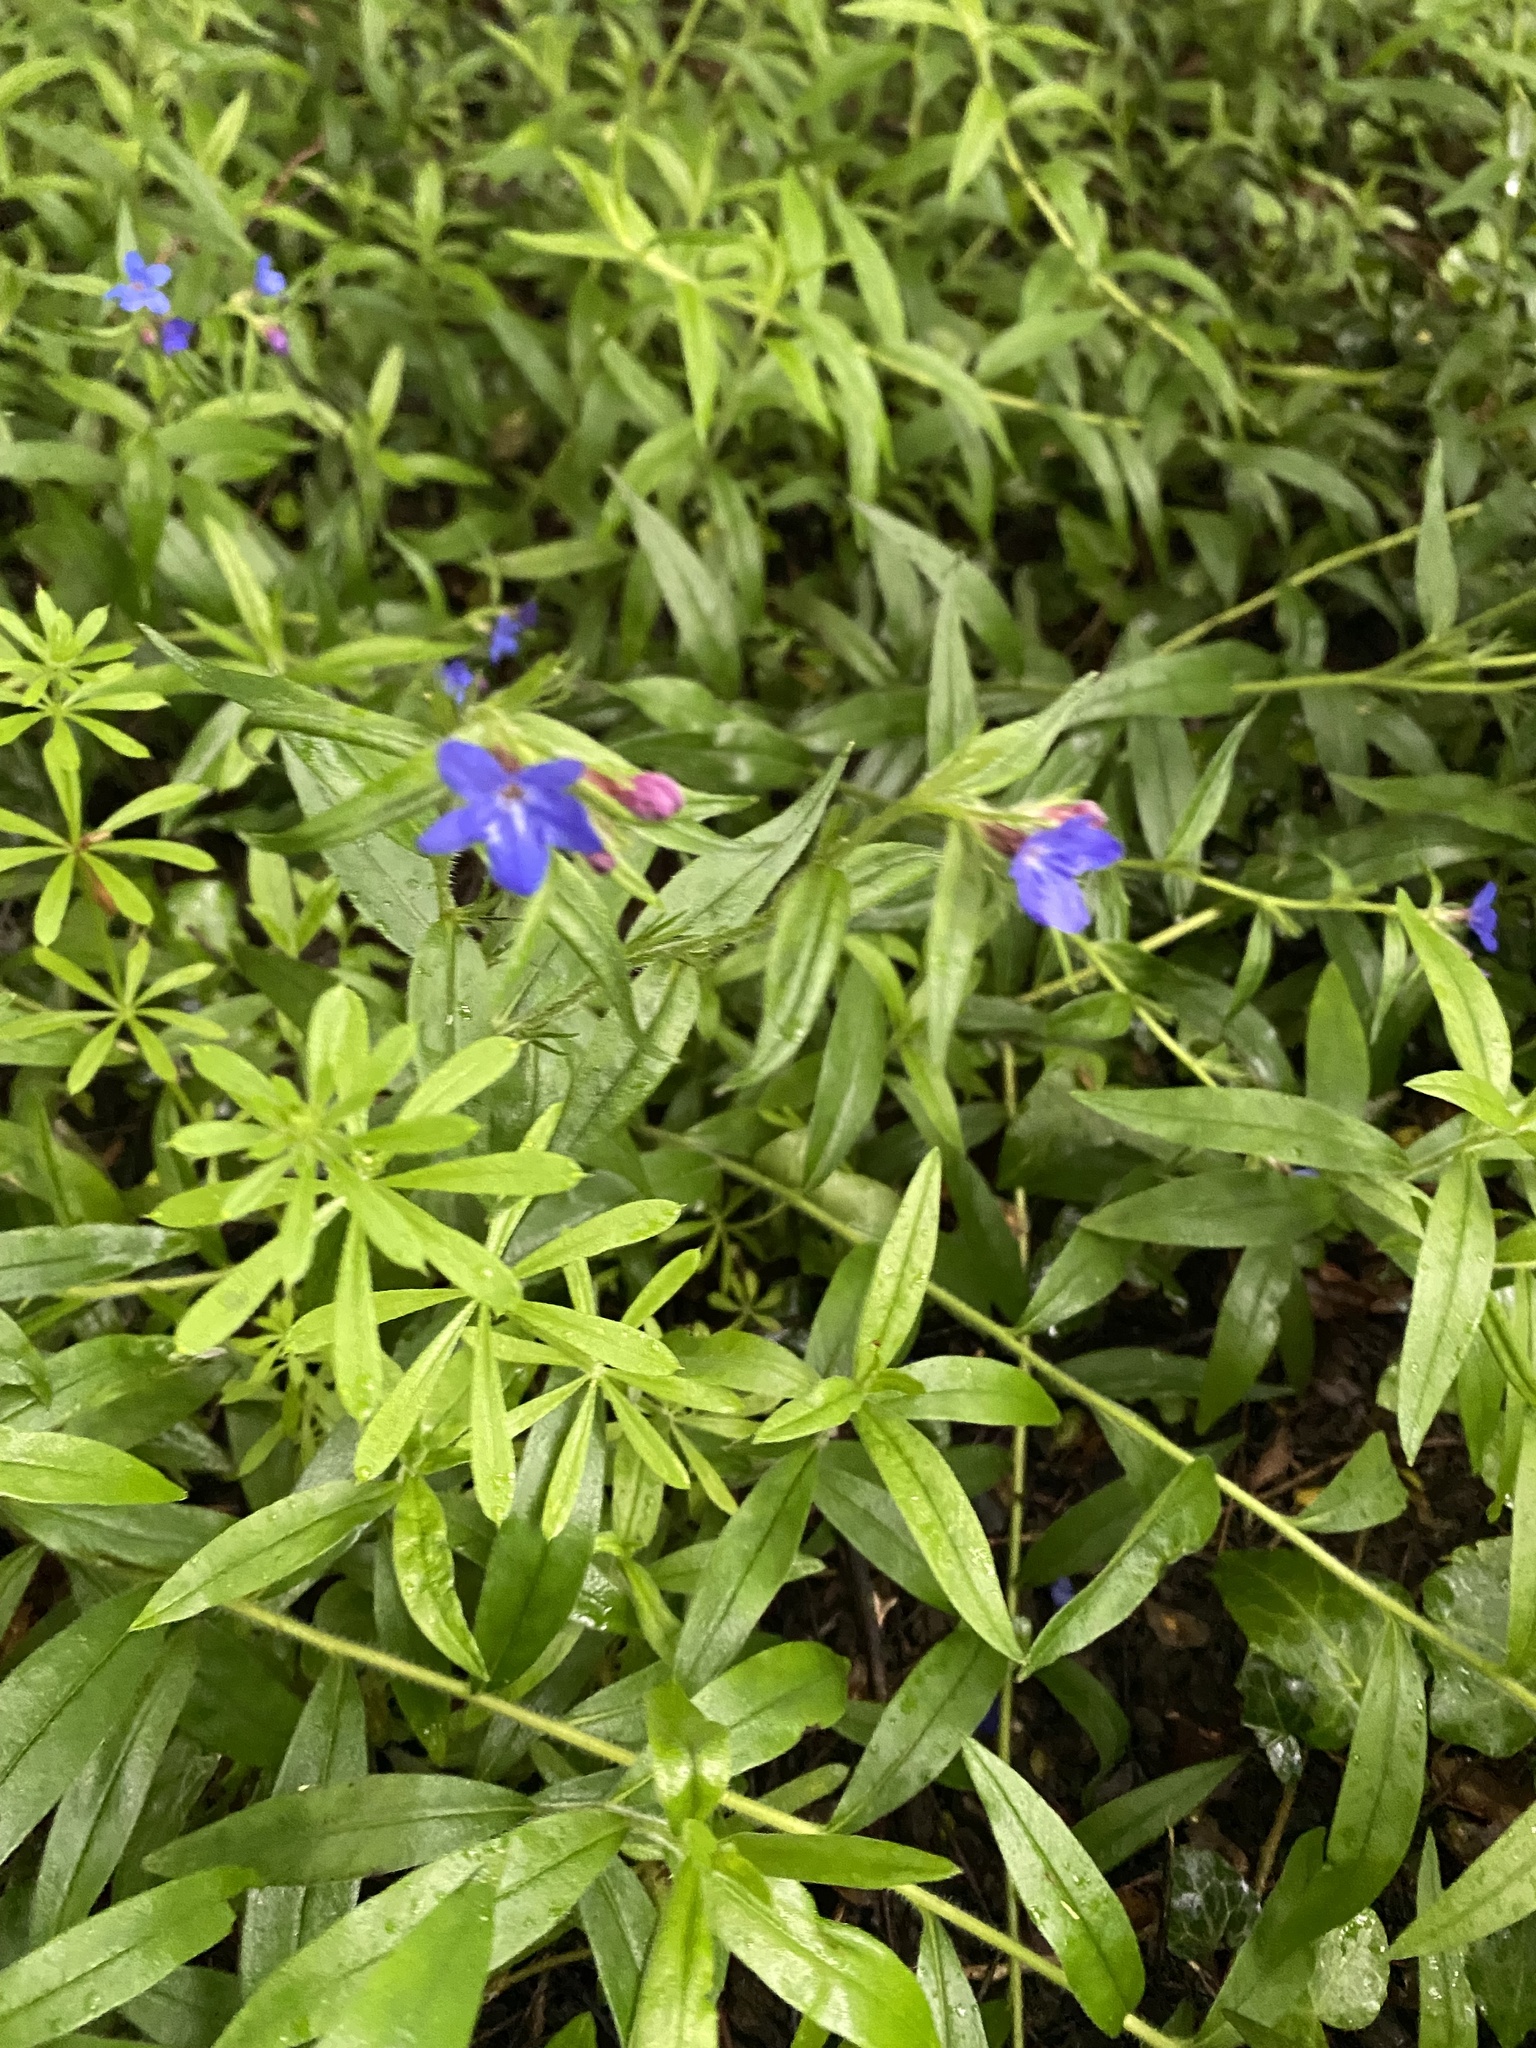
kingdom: Plantae
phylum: Tracheophyta
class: Magnoliopsida
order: Boraginales
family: Boraginaceae
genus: Aegonychon
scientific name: Aegonychon purpurocaeruleum
